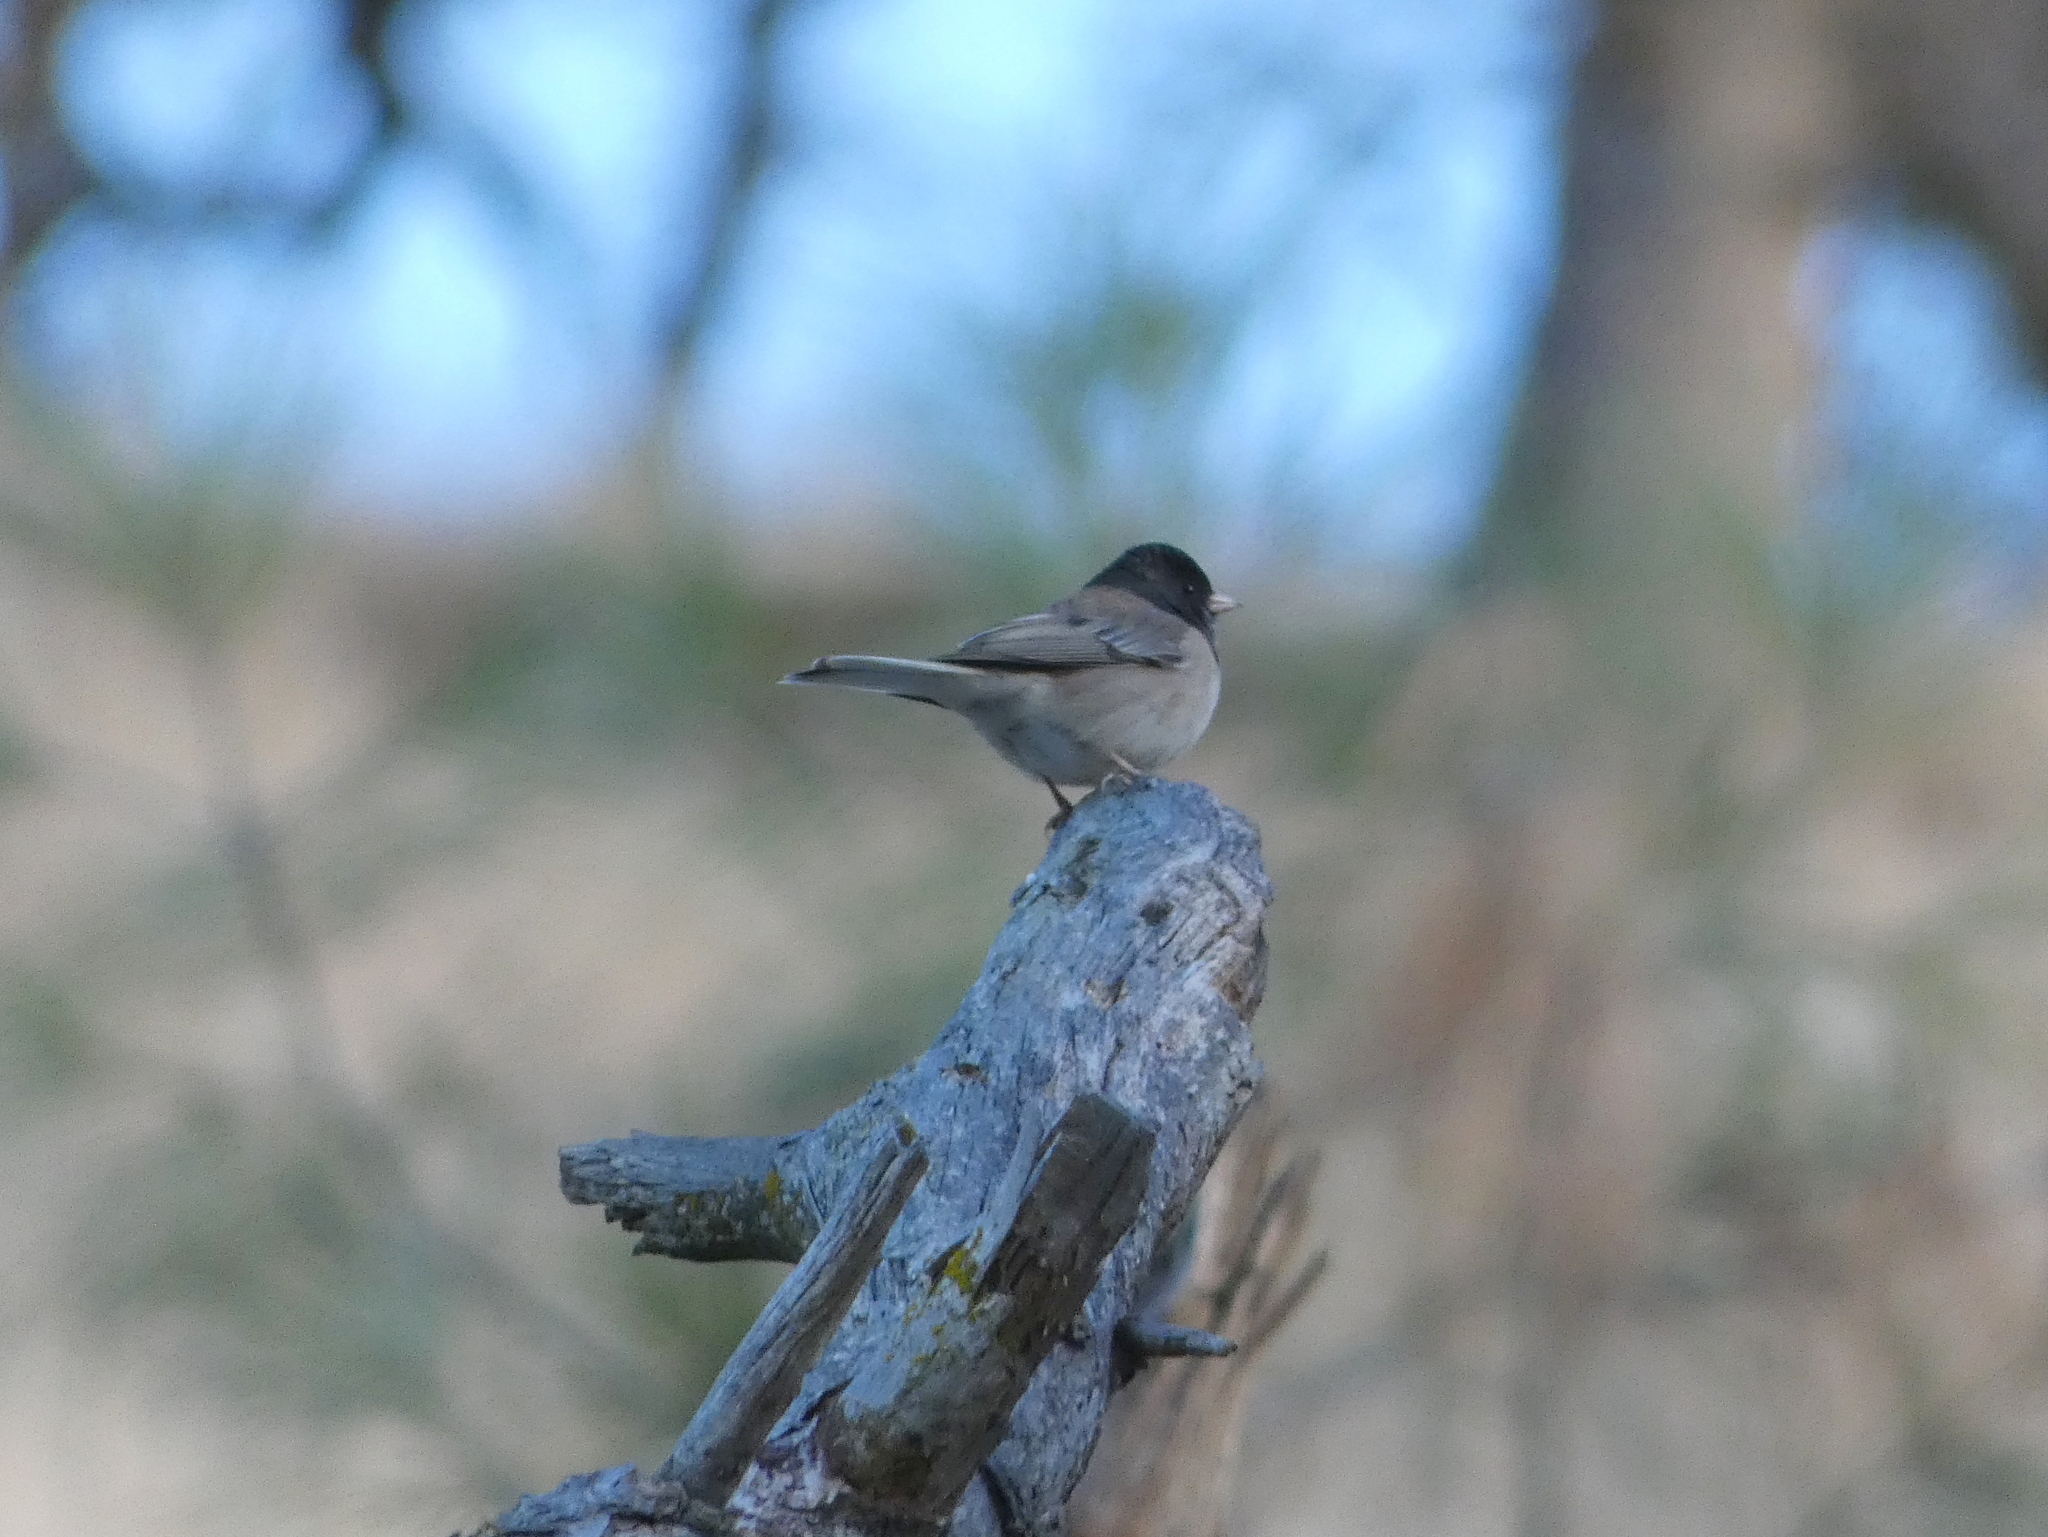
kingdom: Animalia
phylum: Chordata
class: Aves
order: Passeriformes
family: Passerellidae
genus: Junco
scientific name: Junco hyemalis
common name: Dark-eyed junco
